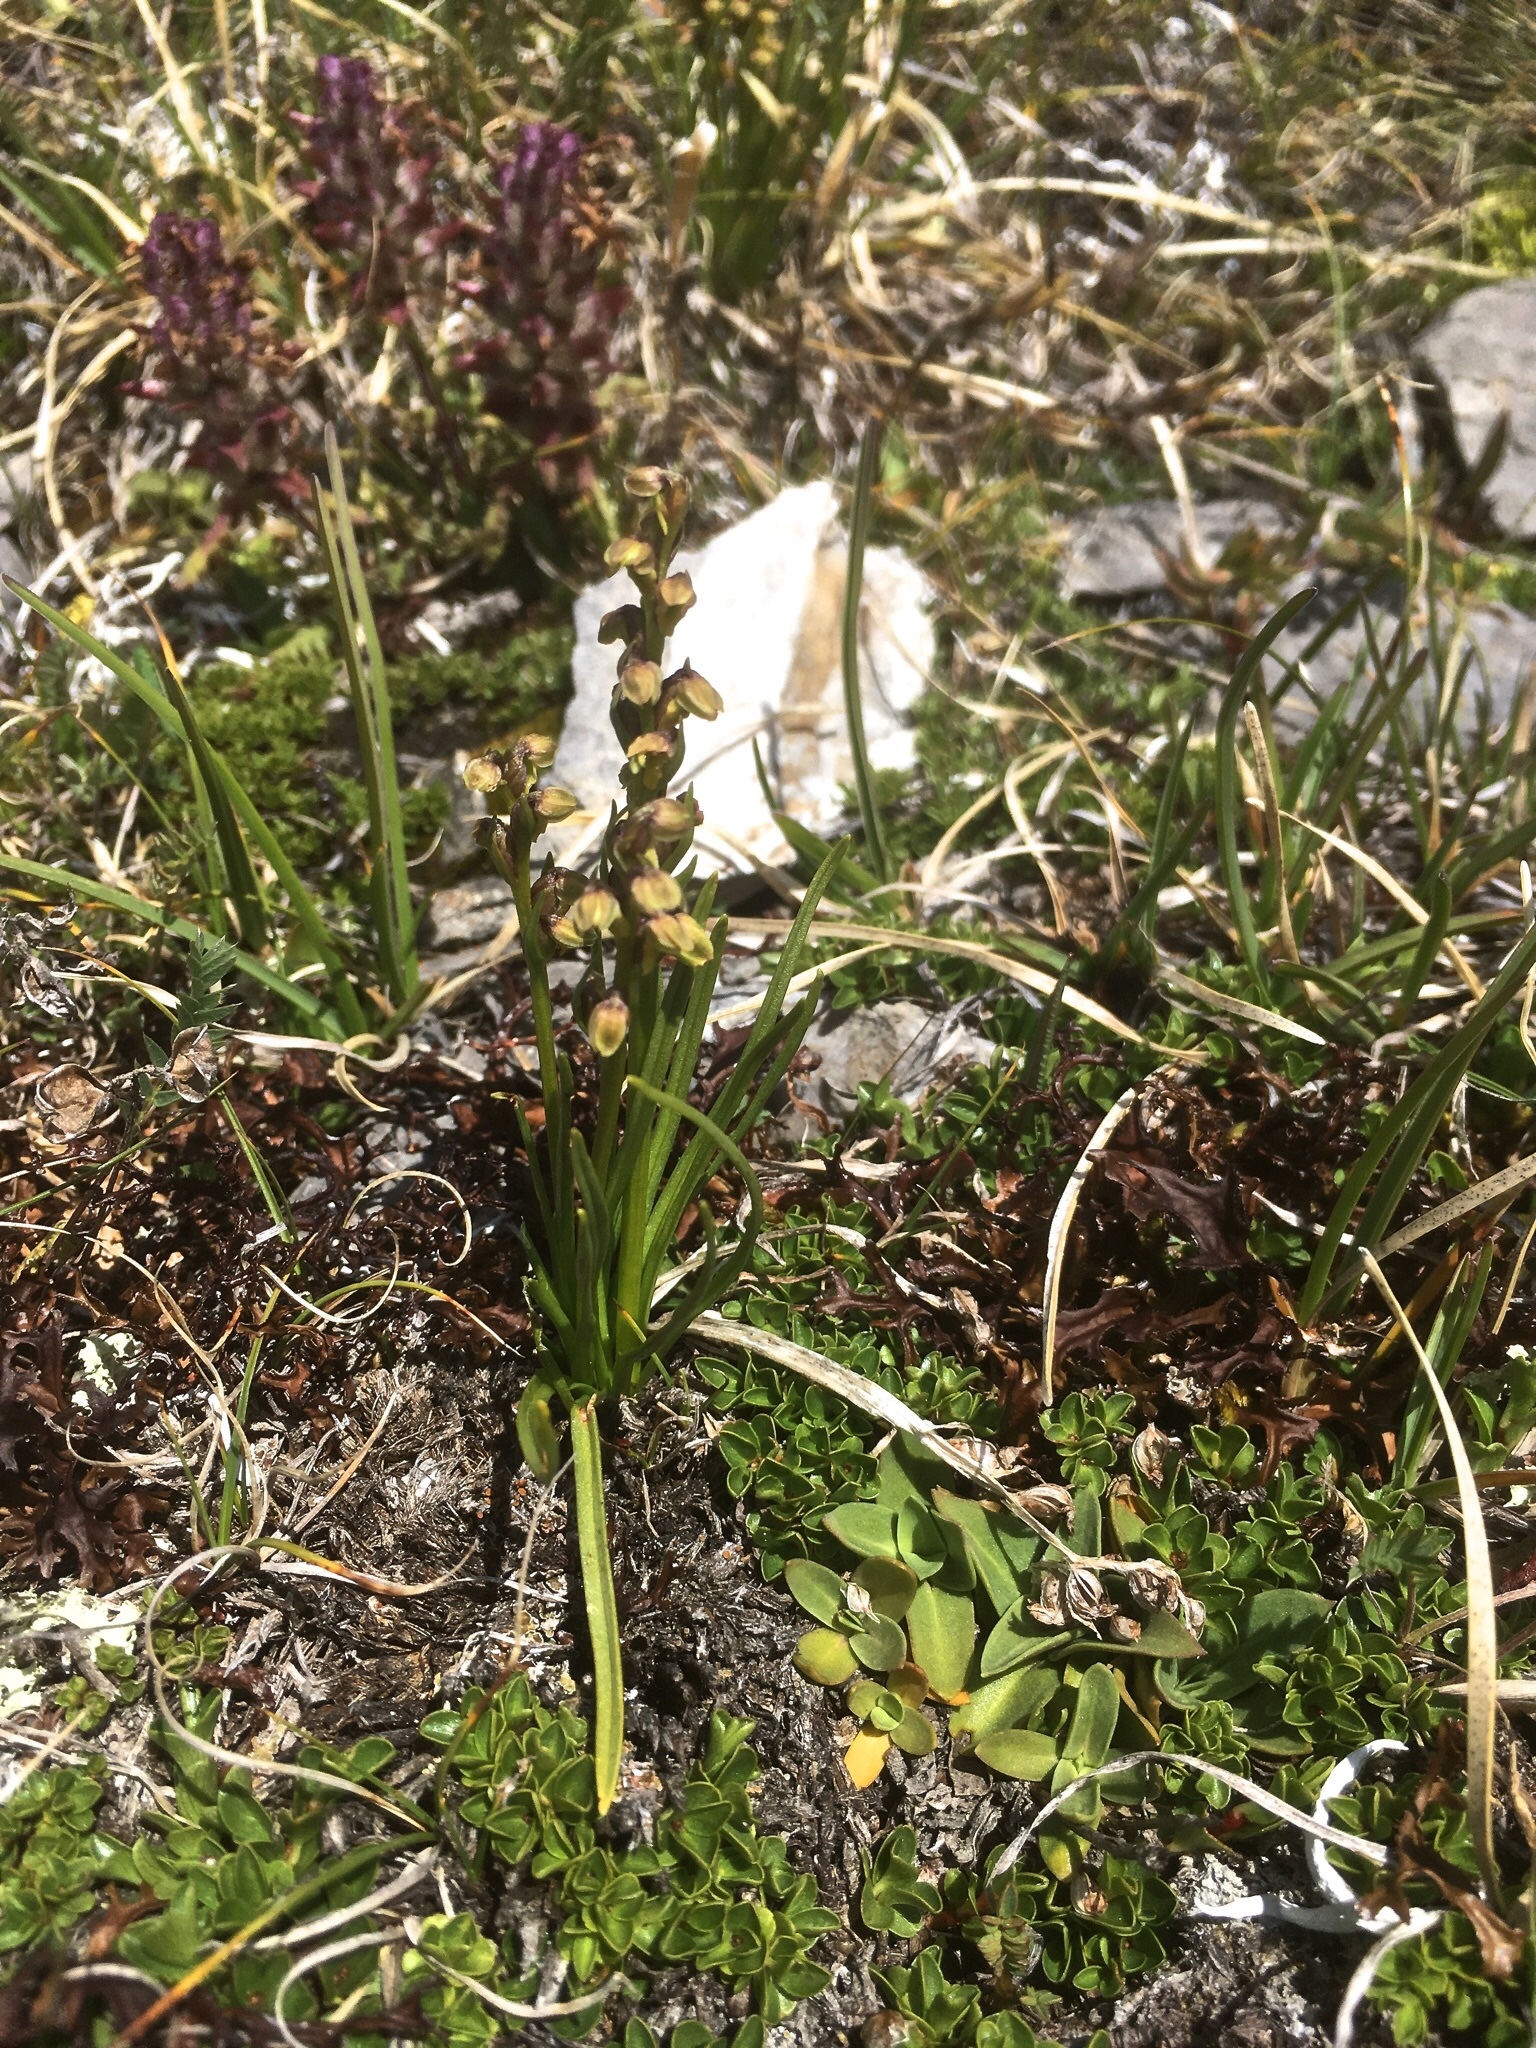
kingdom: Plantae
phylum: Tracheophyta
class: Liliopsida
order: Asparagales
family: Orchidaceae
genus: Chamorchis
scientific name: Chamorchis alpina
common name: Alpine chamorchis
